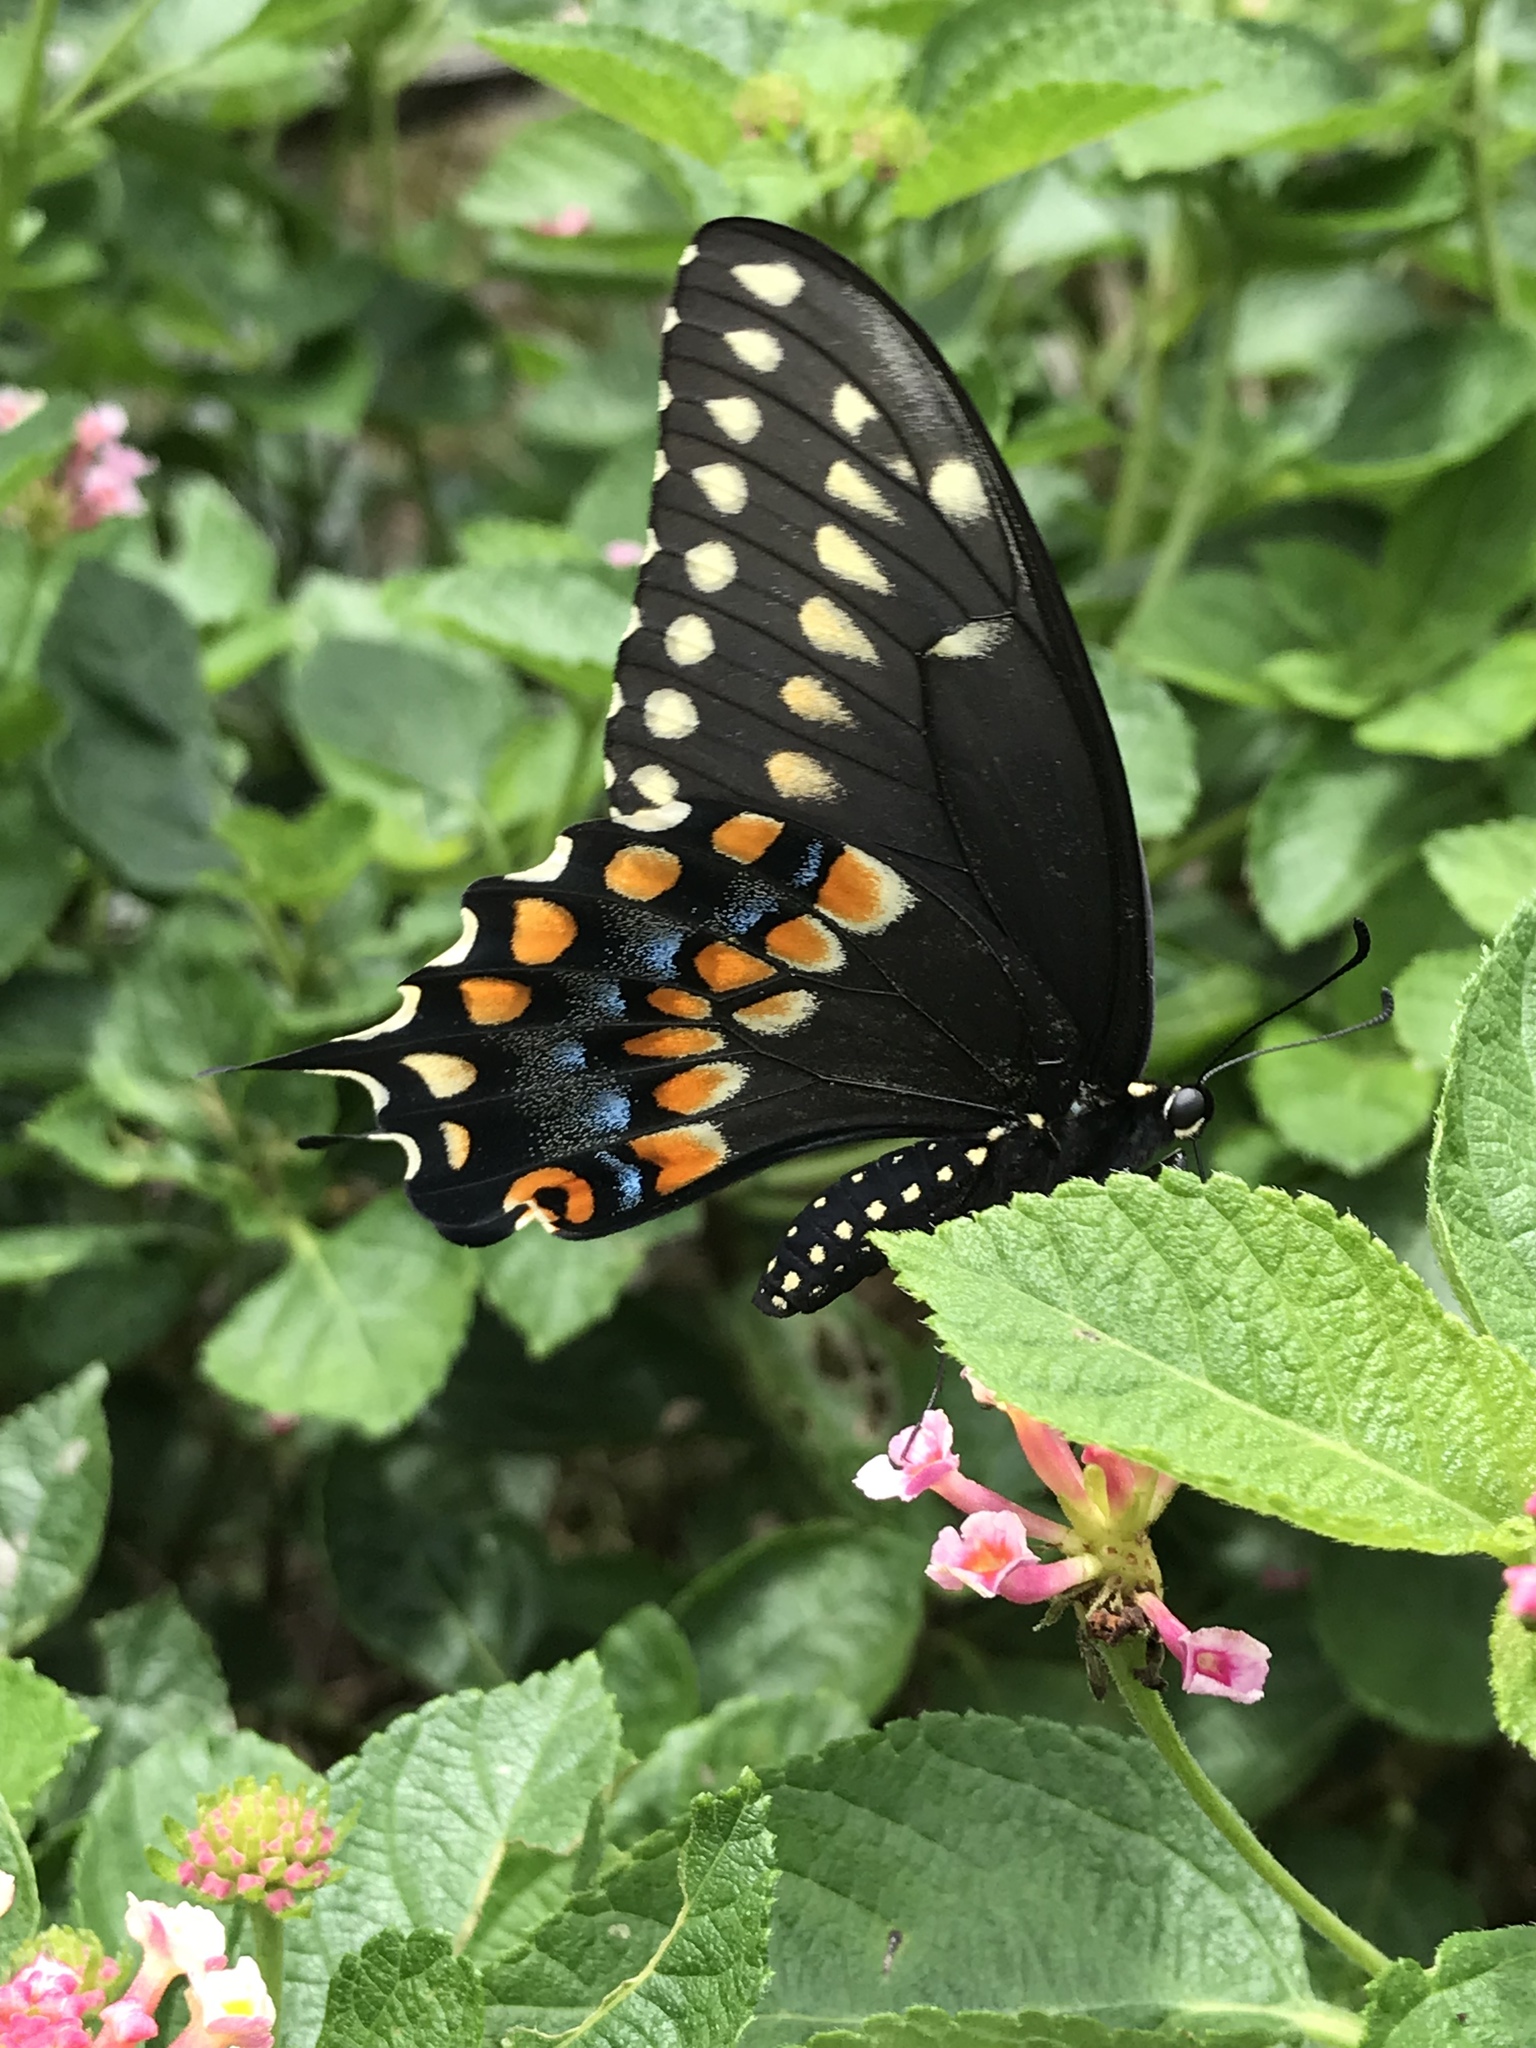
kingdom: Animalia
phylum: Arthropoda
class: Insecta
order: Lepidoptera
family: Papilionidae
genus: Papilio
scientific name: Papilio polyxenes
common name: Black swallowtail
